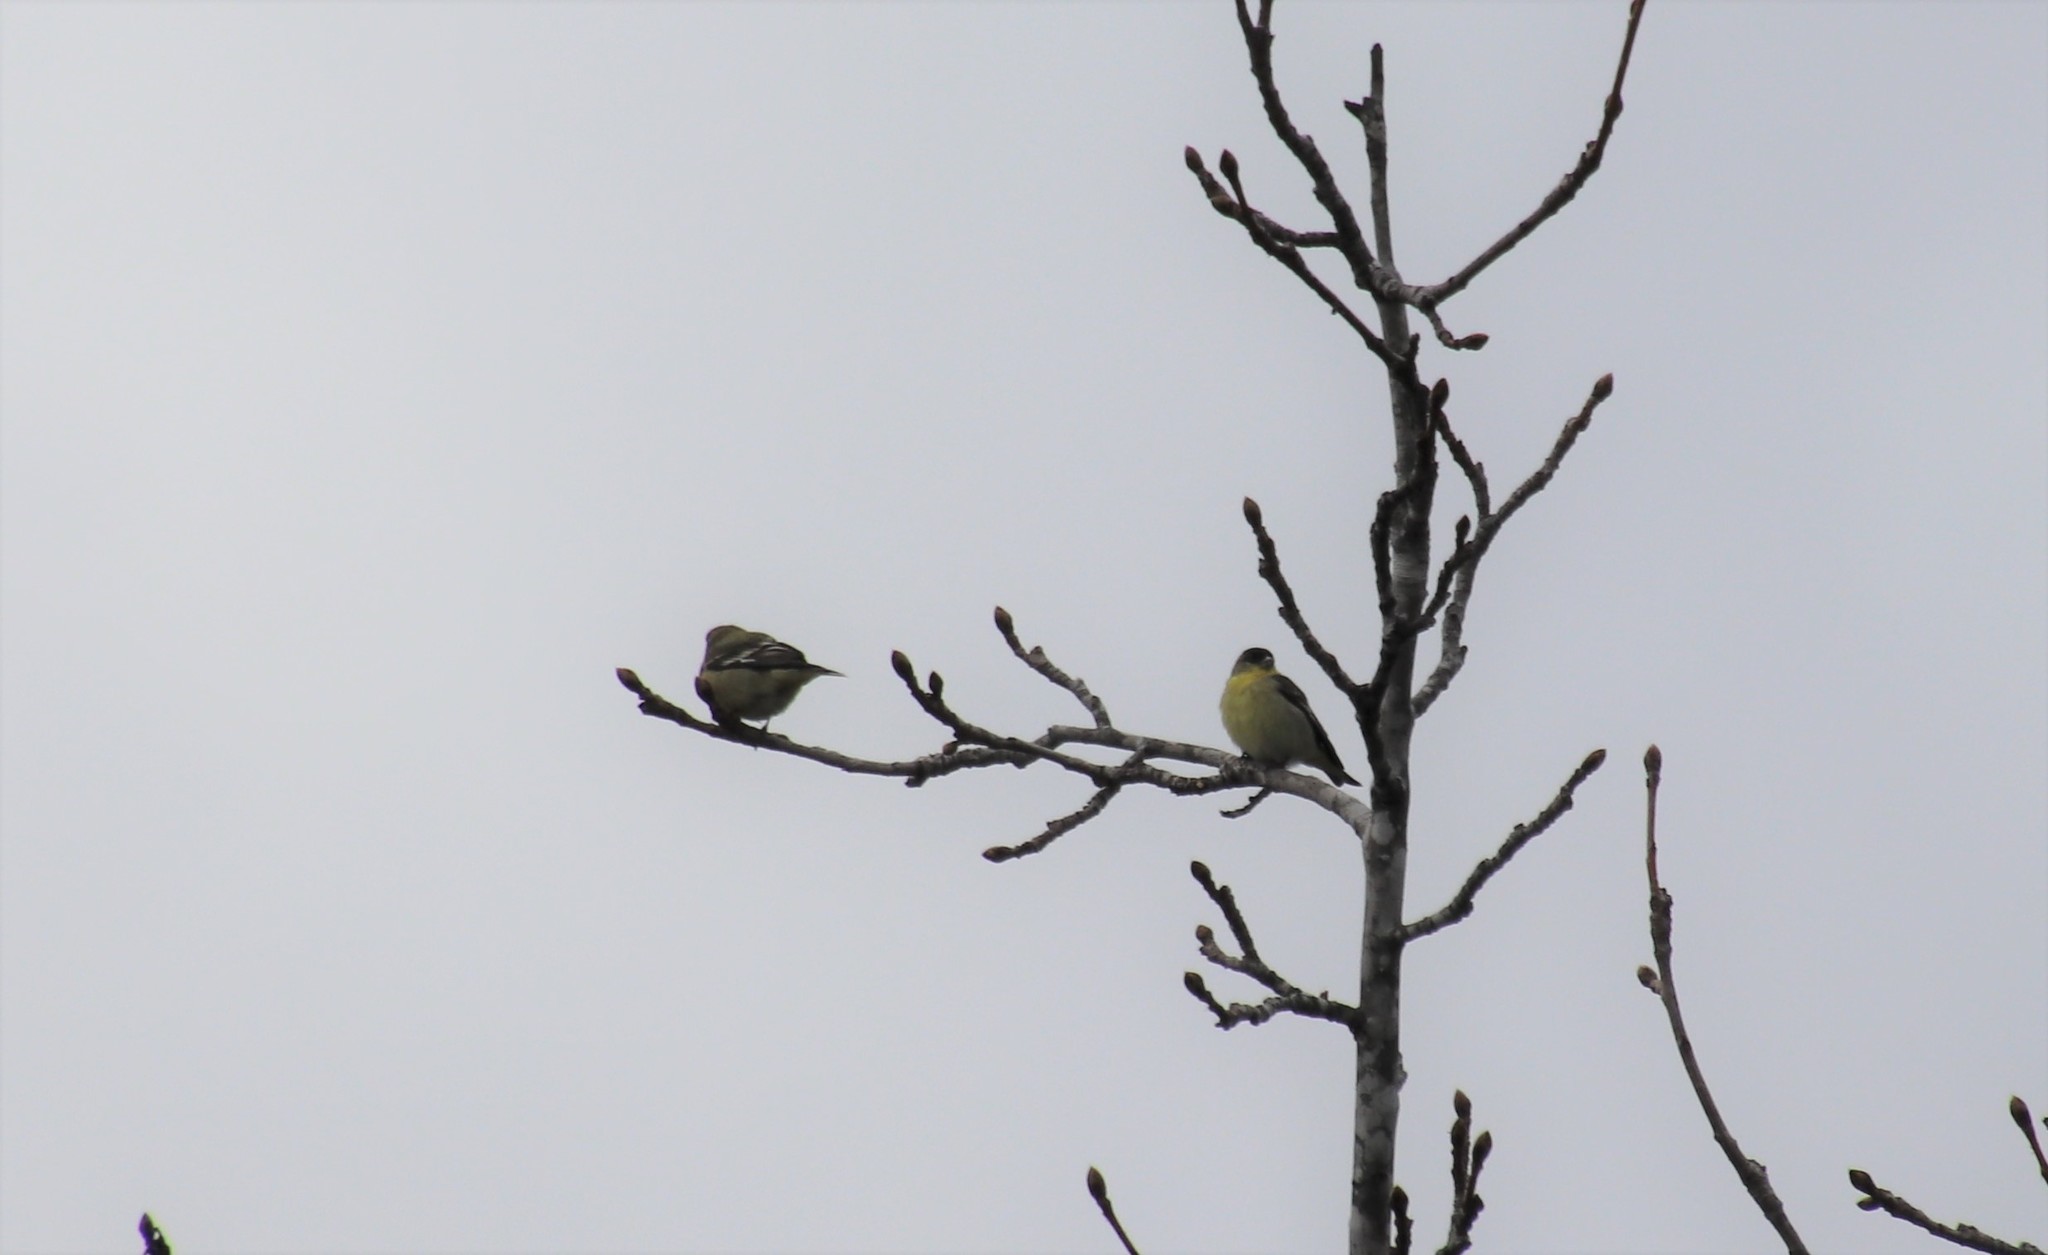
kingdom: Animalia
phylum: Chordata
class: Aves
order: Passeriformes
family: Fringillidae
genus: Spinus
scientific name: Spinus psaltria
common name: Lesser goldfinch
